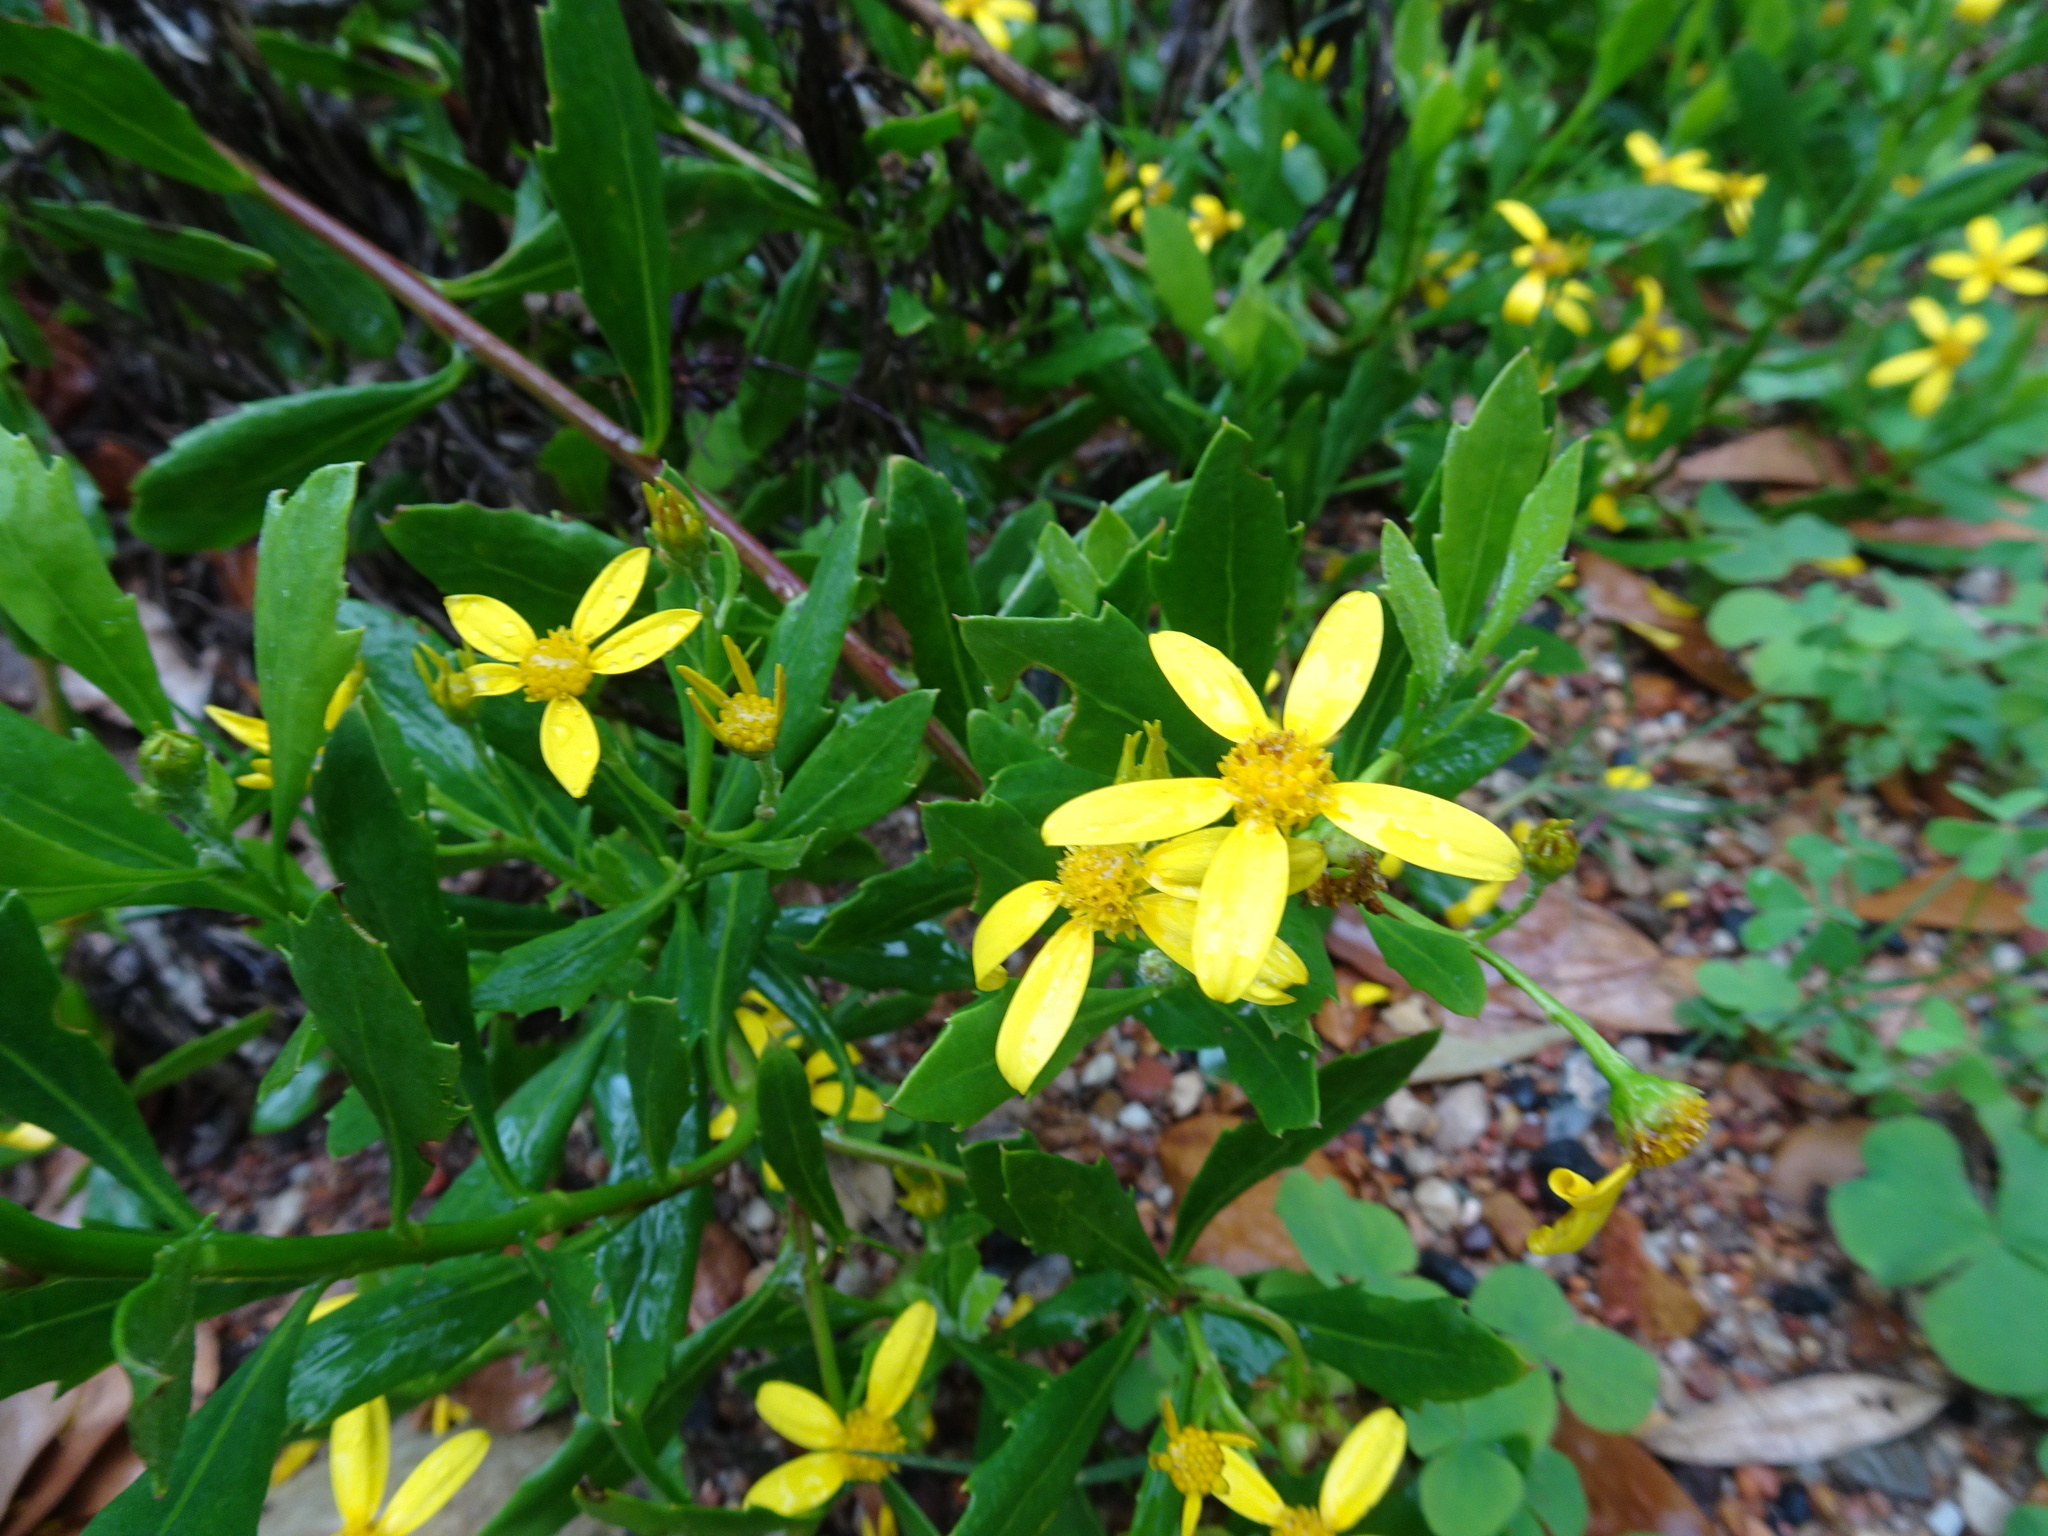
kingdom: Plantae
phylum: Tracheophyta
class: Magnoliopsida
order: Asterales
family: Asteraceae
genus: Osteospermum
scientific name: Osteospermum moniliferum
